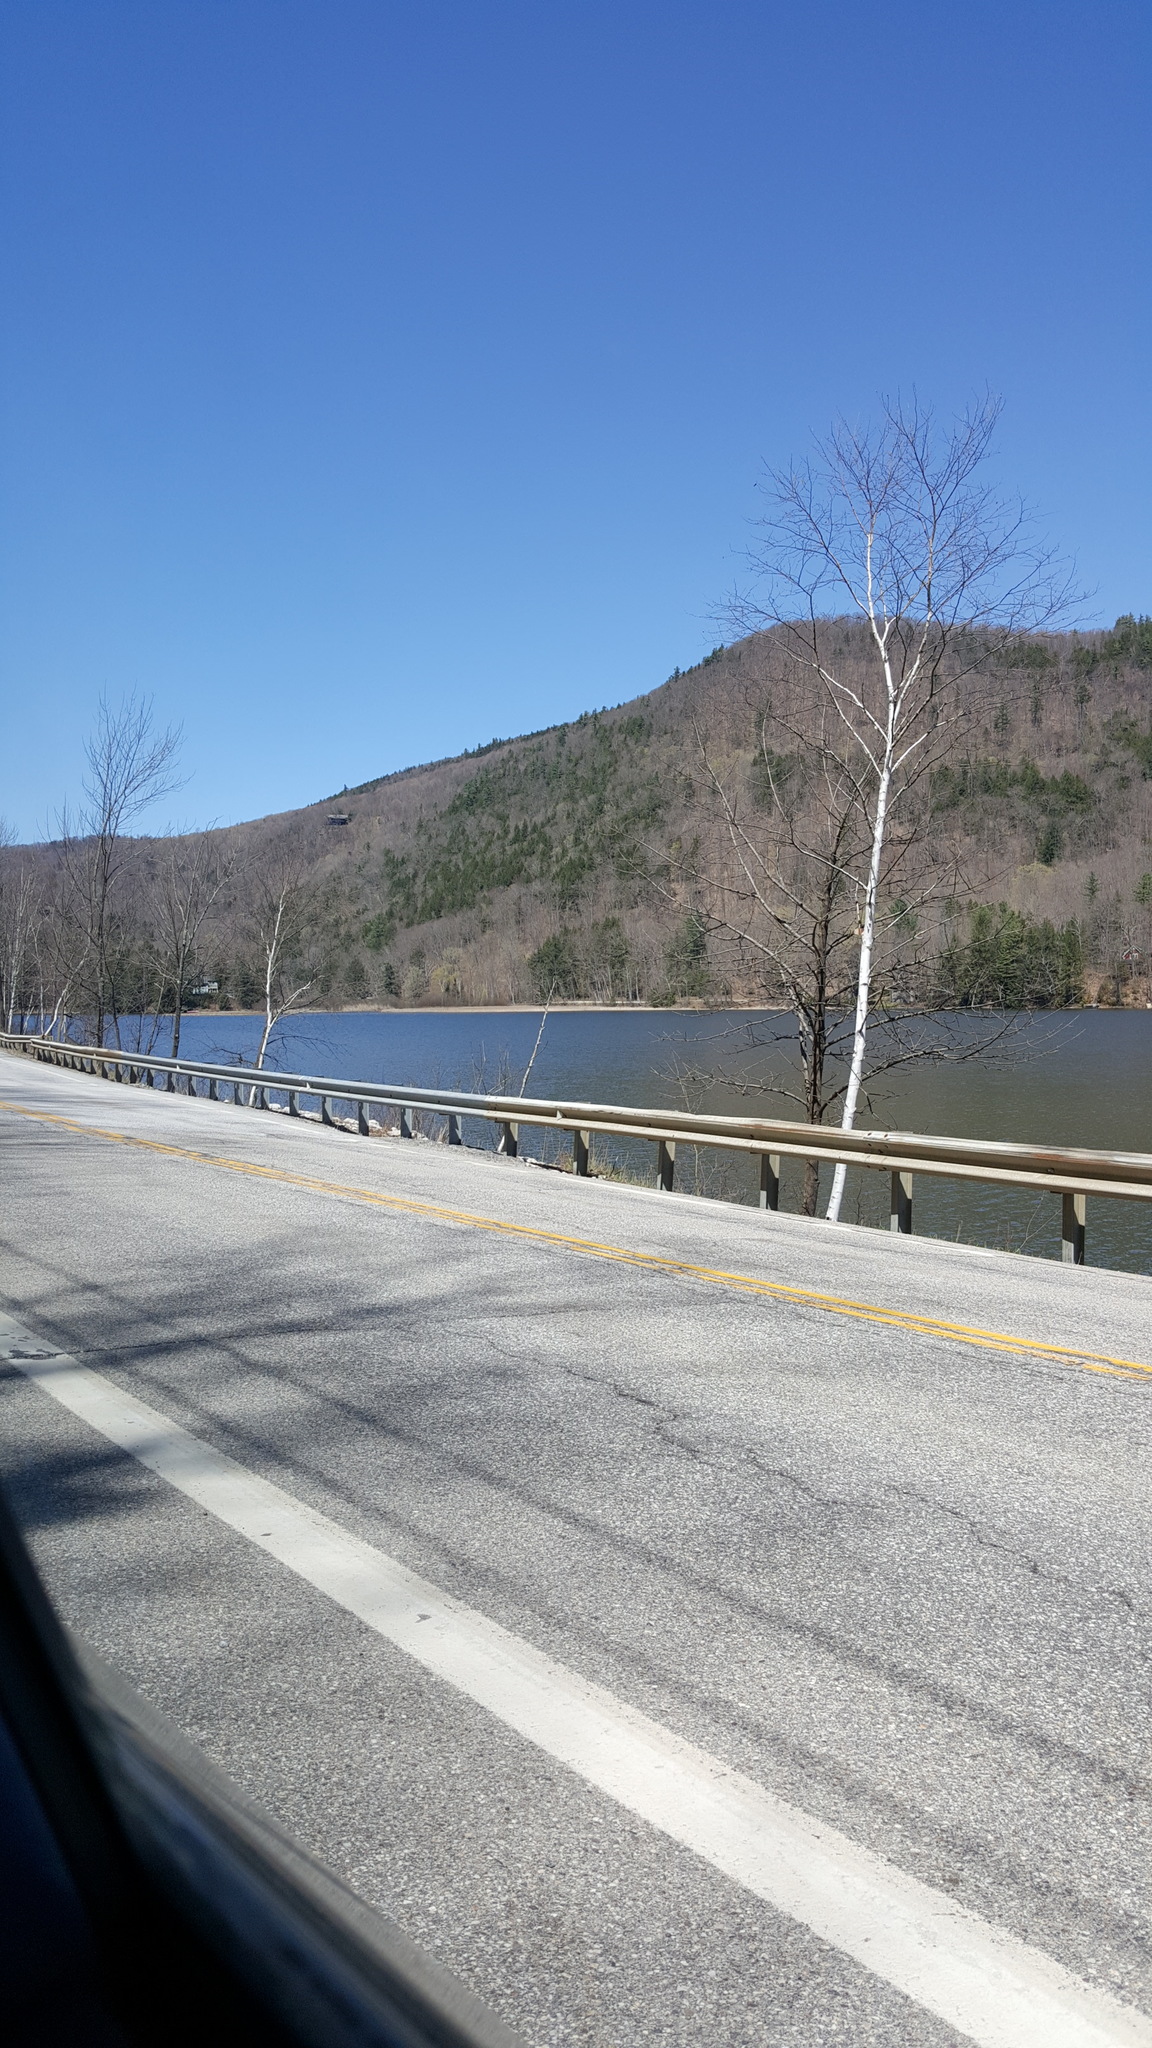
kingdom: Plantae
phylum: Tracheophyta
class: Magnoliopsida
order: Fagales
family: Betulaceae
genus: Betula
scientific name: Betula papyrifera
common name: Paper birch
